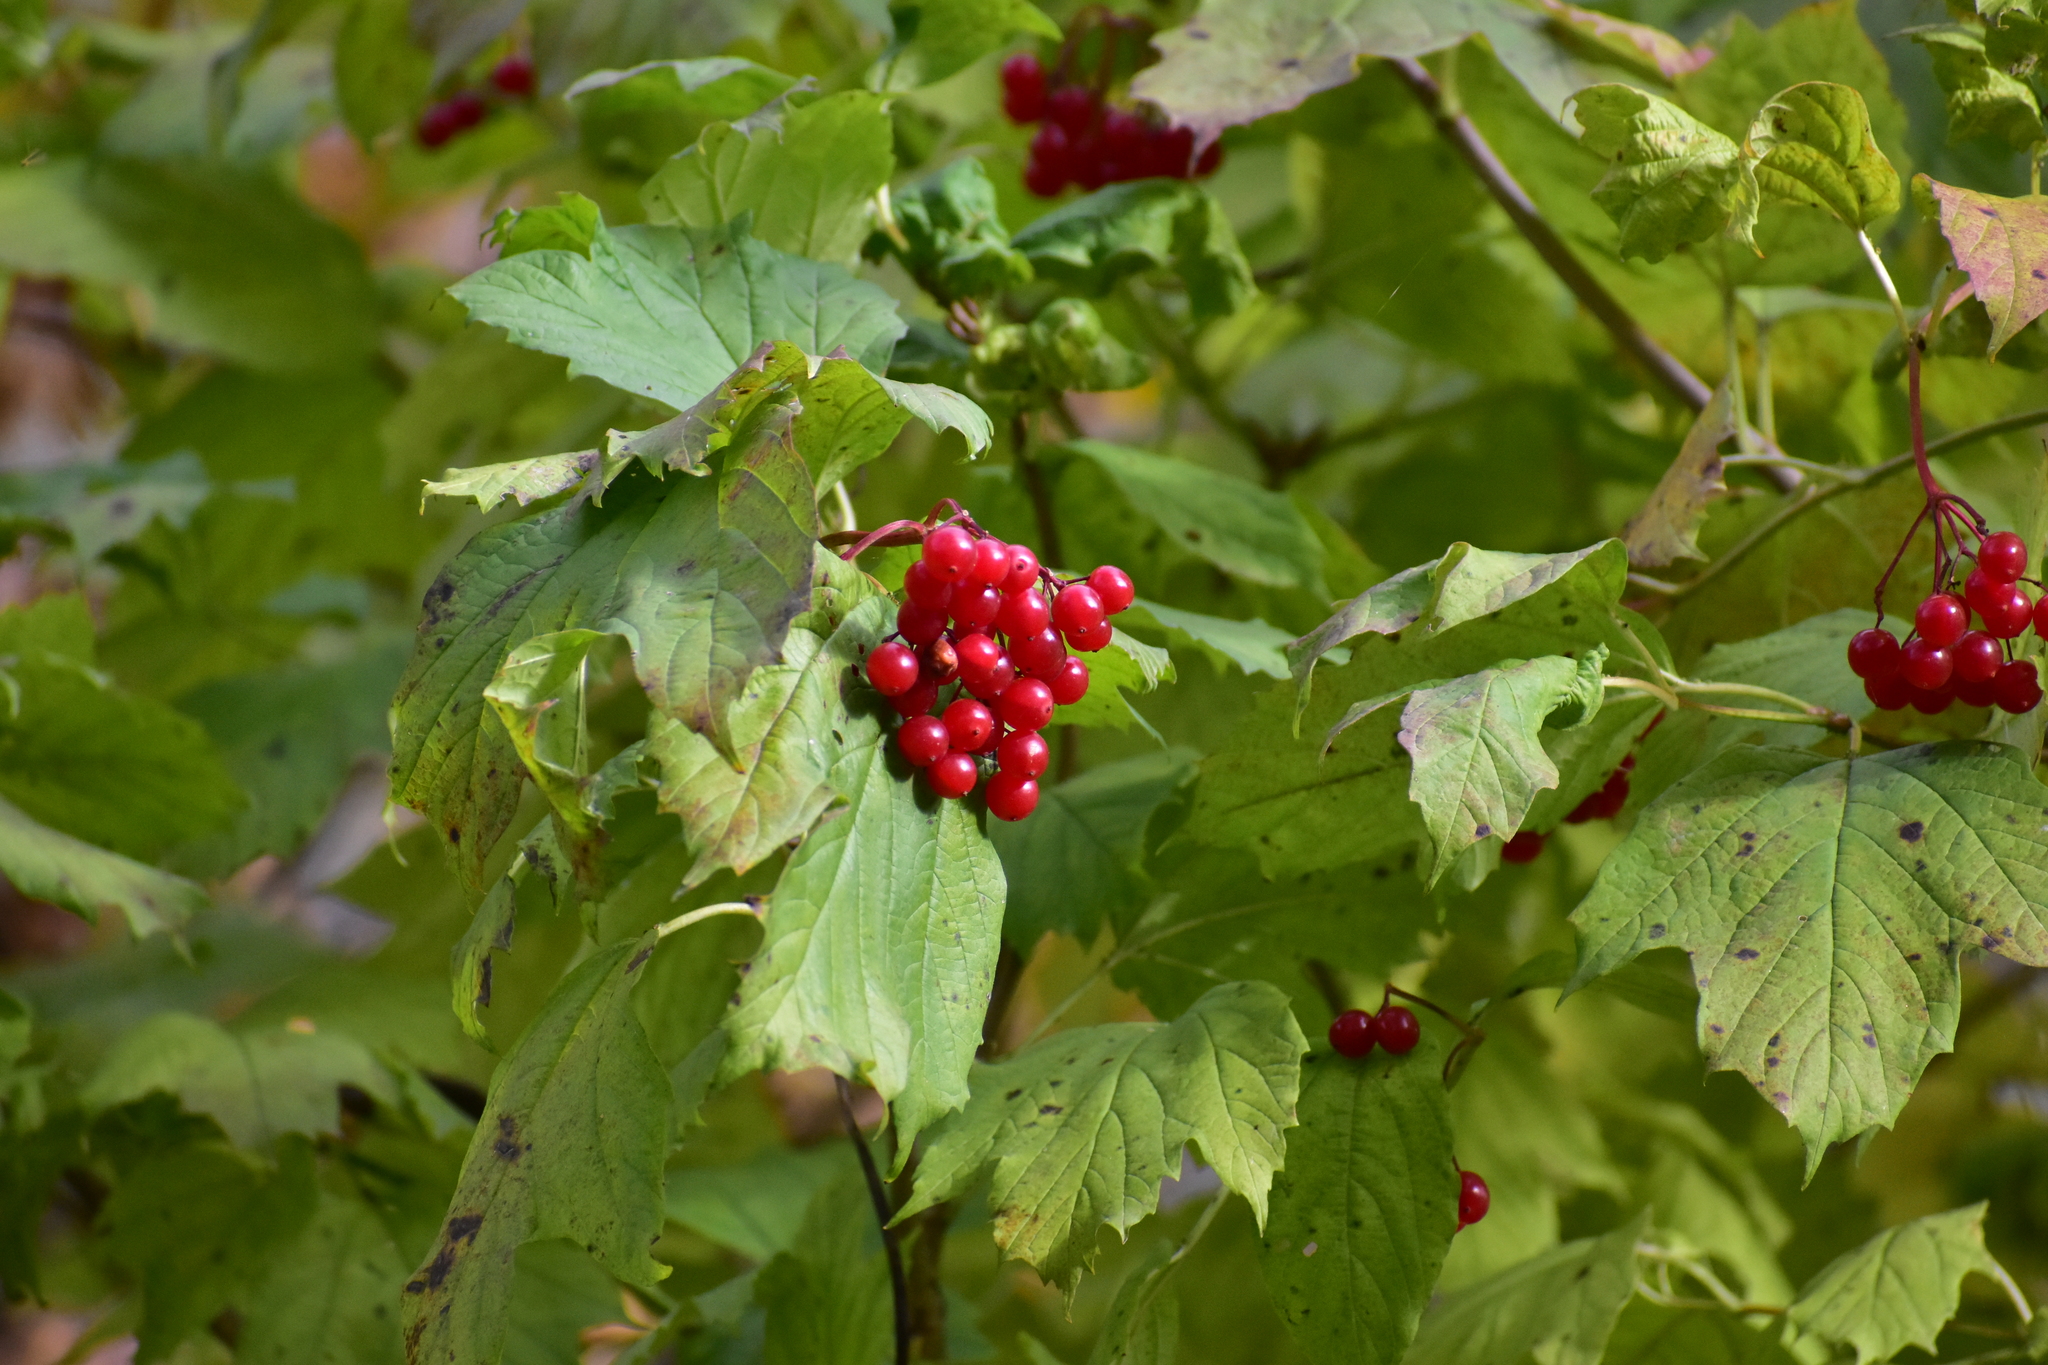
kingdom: Plantae
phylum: Tracheophyta
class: Magnoliopsida
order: Dipsacales
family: Viburnaceae
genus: Viburnum
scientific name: Viburnum opulus
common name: Guelder-rose
